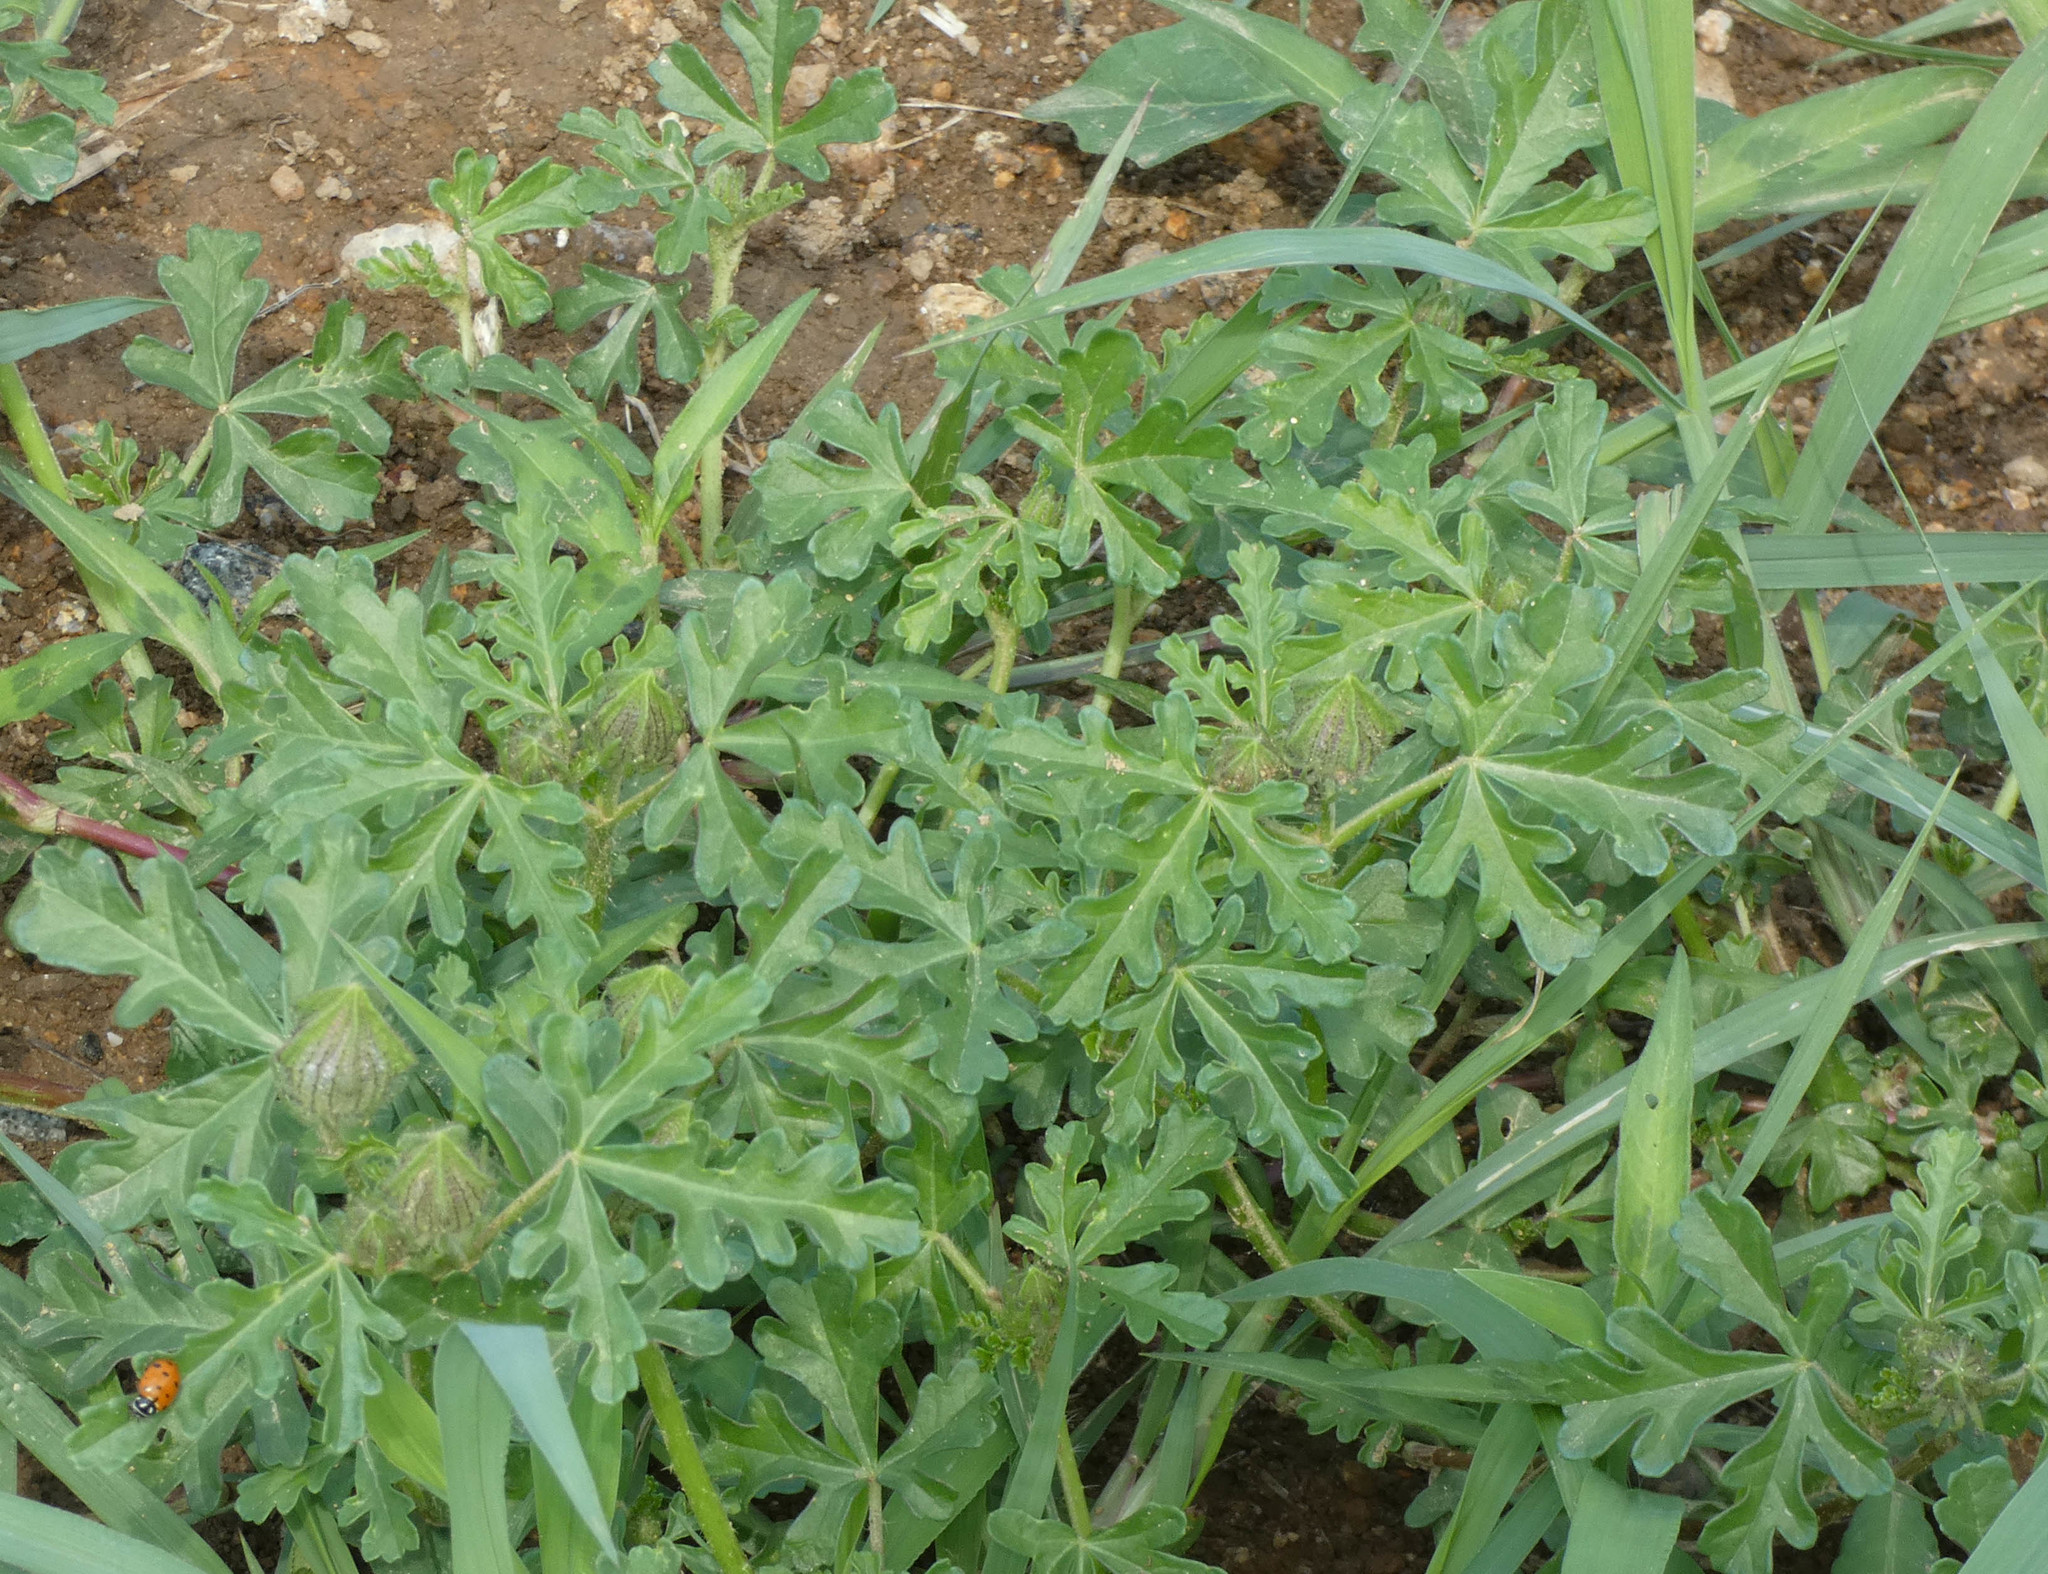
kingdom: Plantae
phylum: Tracheophyta
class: Magnoliopsida
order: Malvales
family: Malvaceae
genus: Hibiscus
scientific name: Hibiscus trionum
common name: Bladder ketmia
